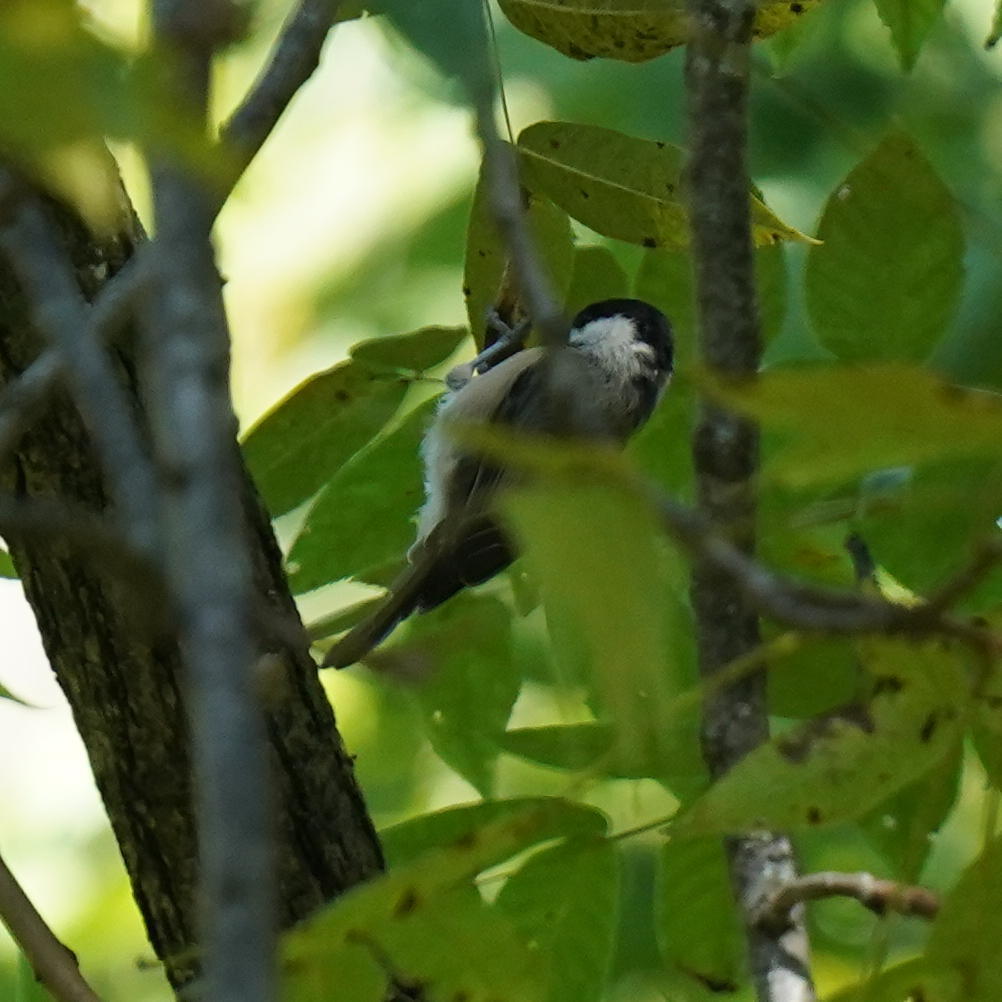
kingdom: Animalia
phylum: Chordata
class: Aves
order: Passeriformes
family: Paridae
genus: Poecile
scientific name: Poecile carolinensis
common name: Carolina chickadee
